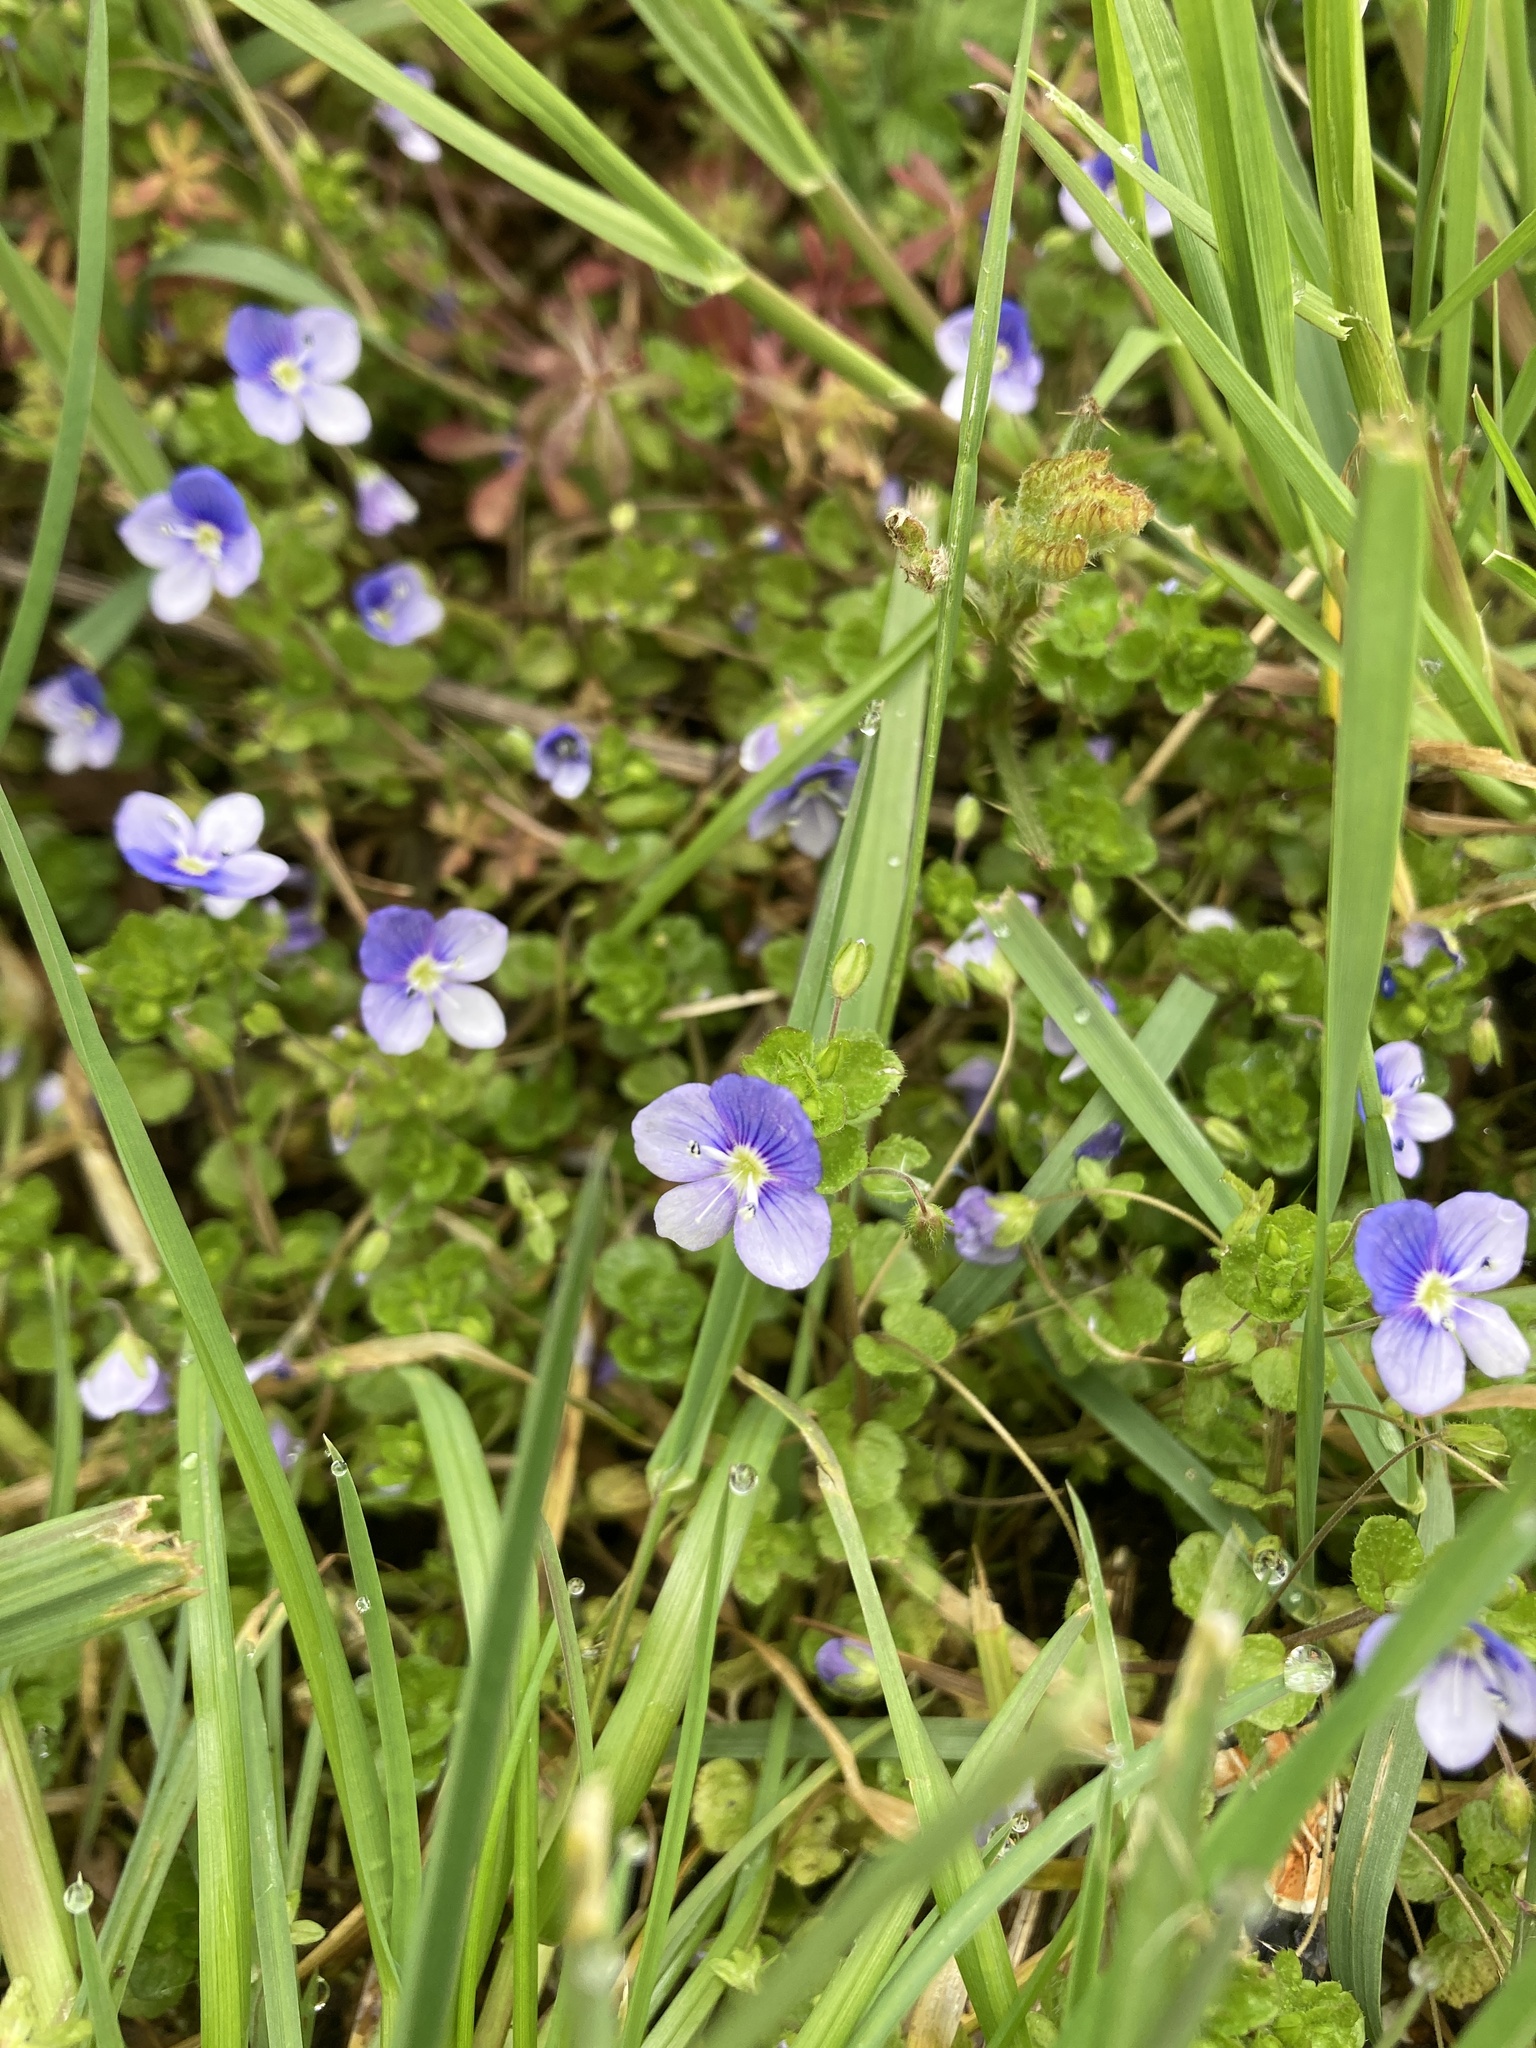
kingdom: Plantae
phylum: Tracheophyta
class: Magnoliopsida
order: Lamiales
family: Plantaginaceae
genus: Veronica
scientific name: Veronica filiformis
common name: Slender speedwell
